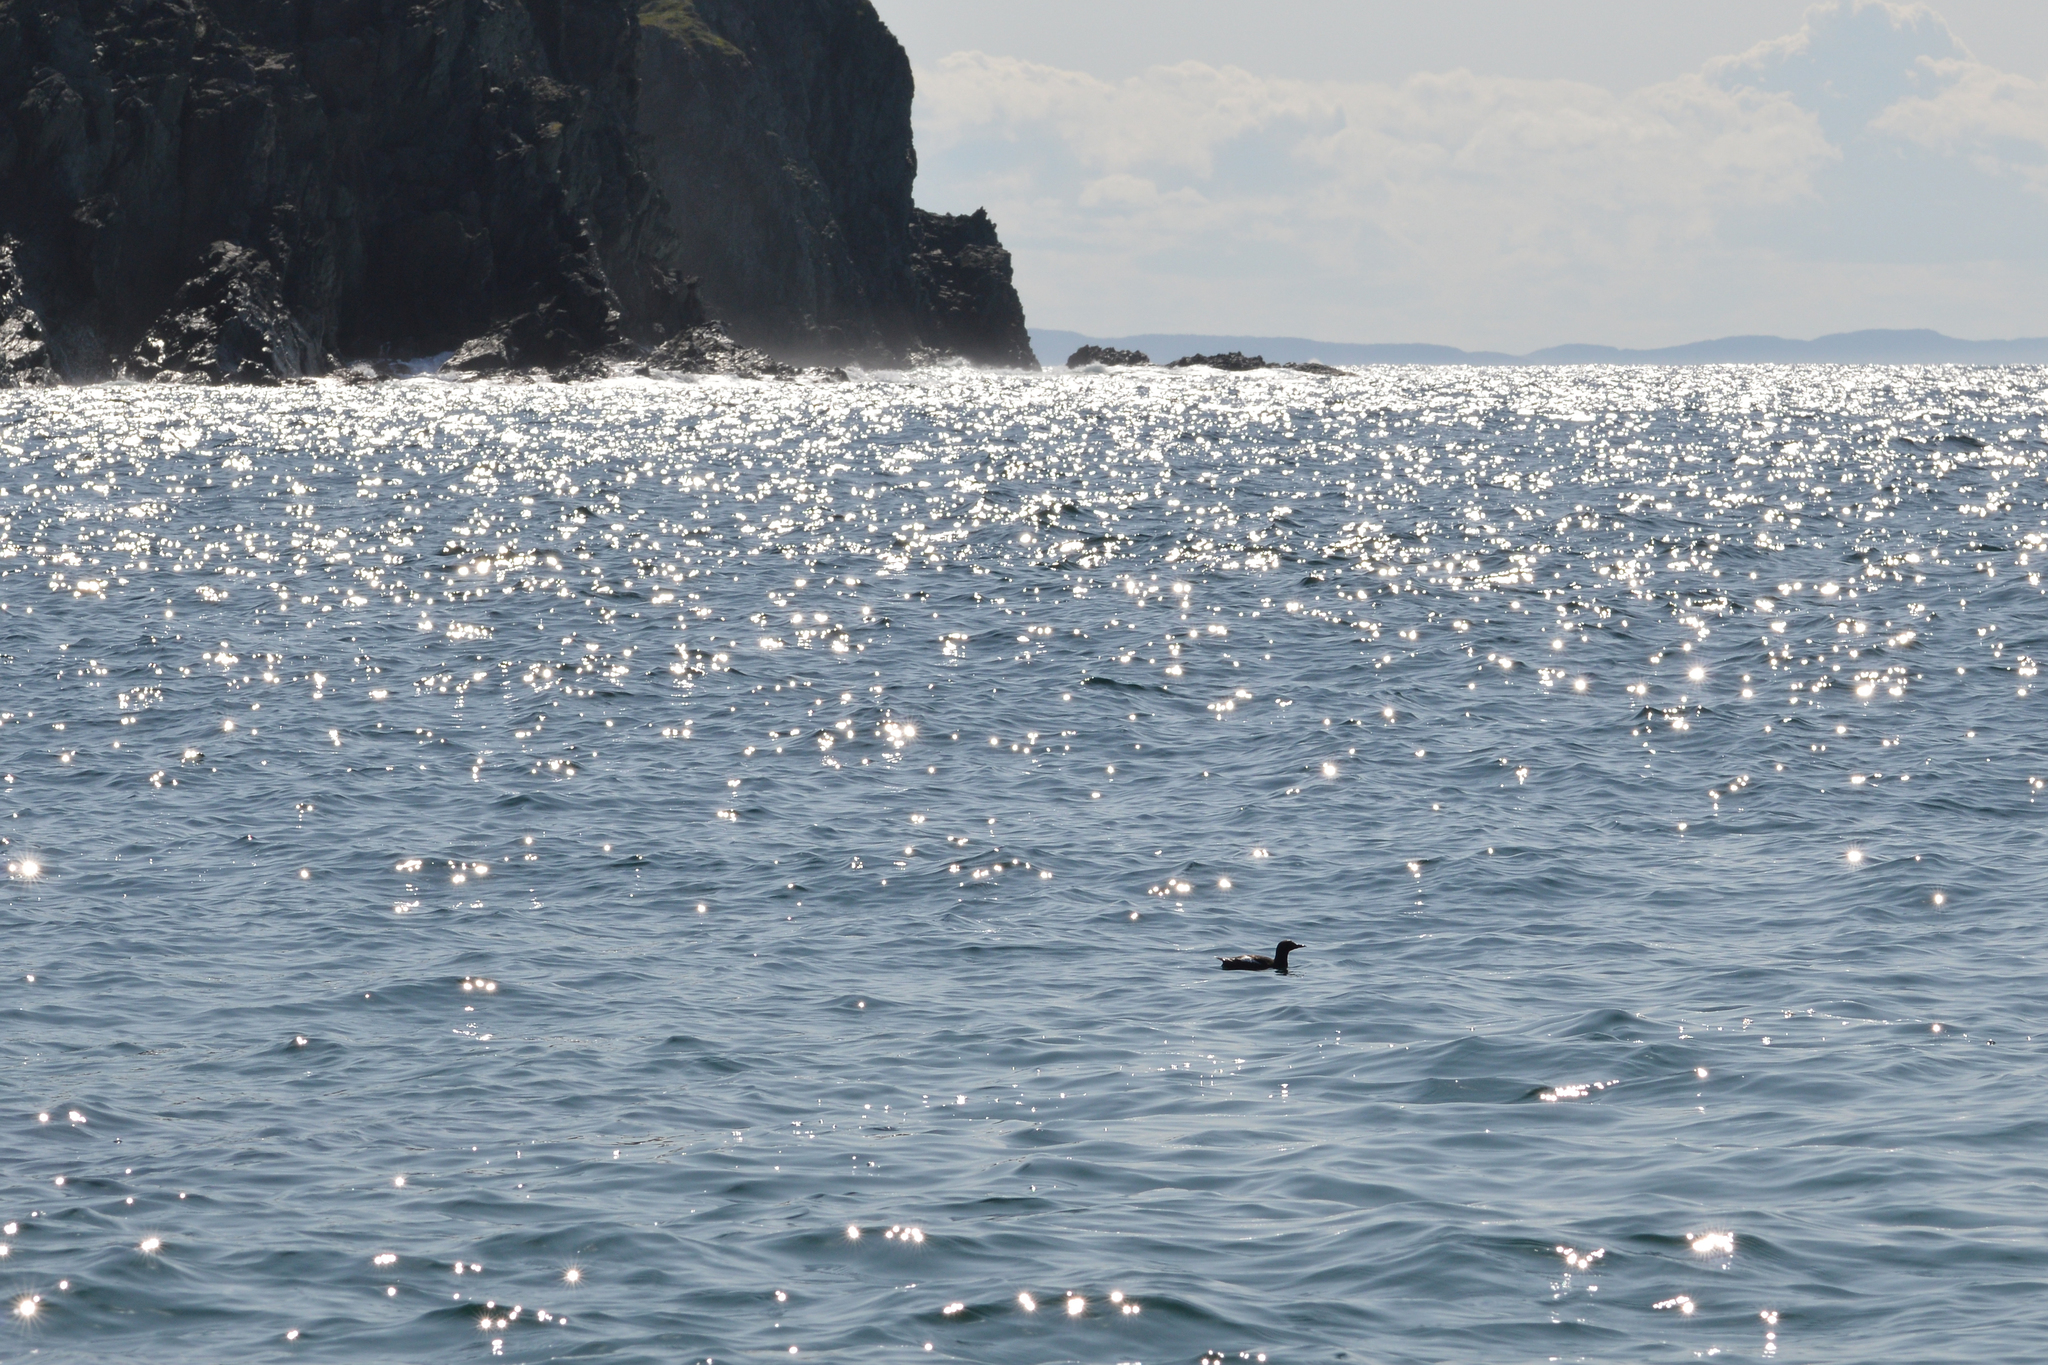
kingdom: Animalia
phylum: Chordata
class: Aves
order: Charadriiformes
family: Alcidae
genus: Cepphus
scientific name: Cepphus grylle
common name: Black guillemot
